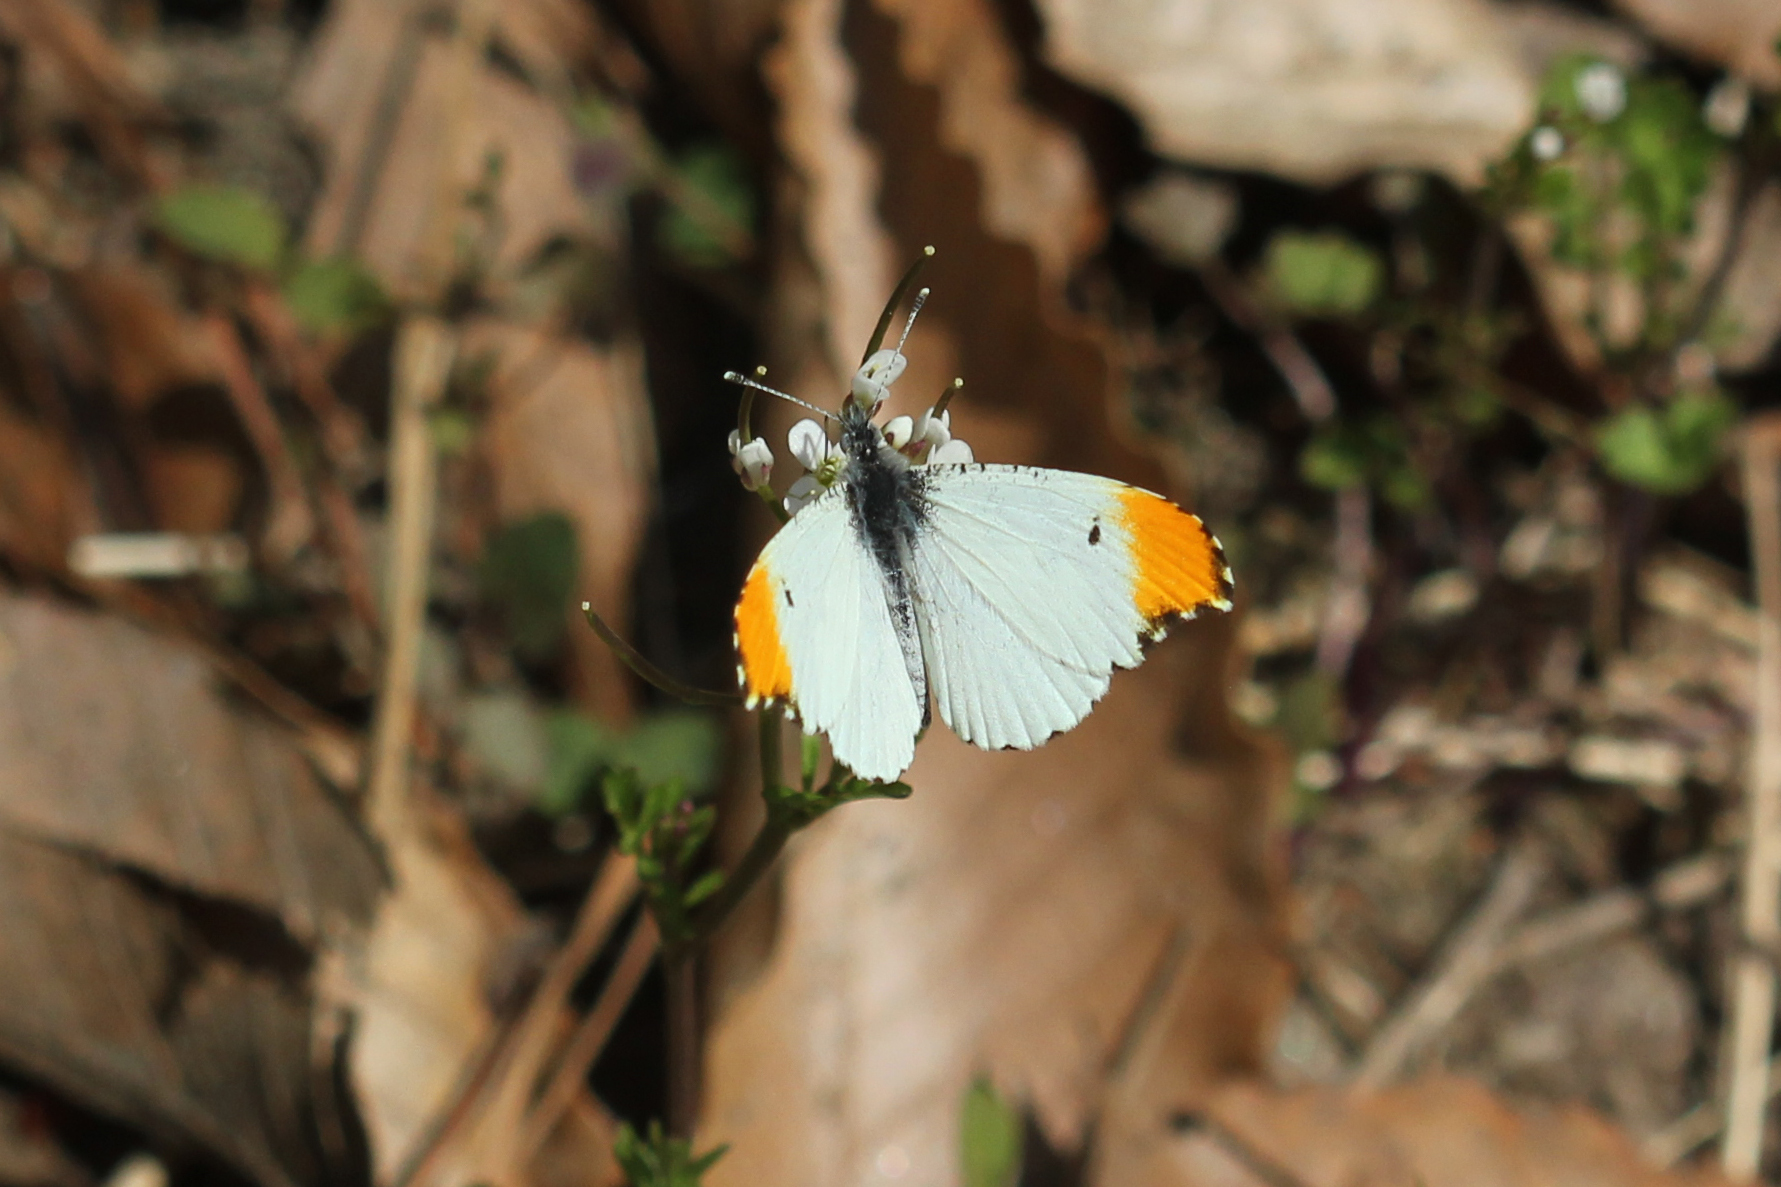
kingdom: Animalia
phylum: Arthropoda
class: Insecta
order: Lepidoptera
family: Pieridae
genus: Anthocharis
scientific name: Anthocharis midea
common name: Falcate orangetip
